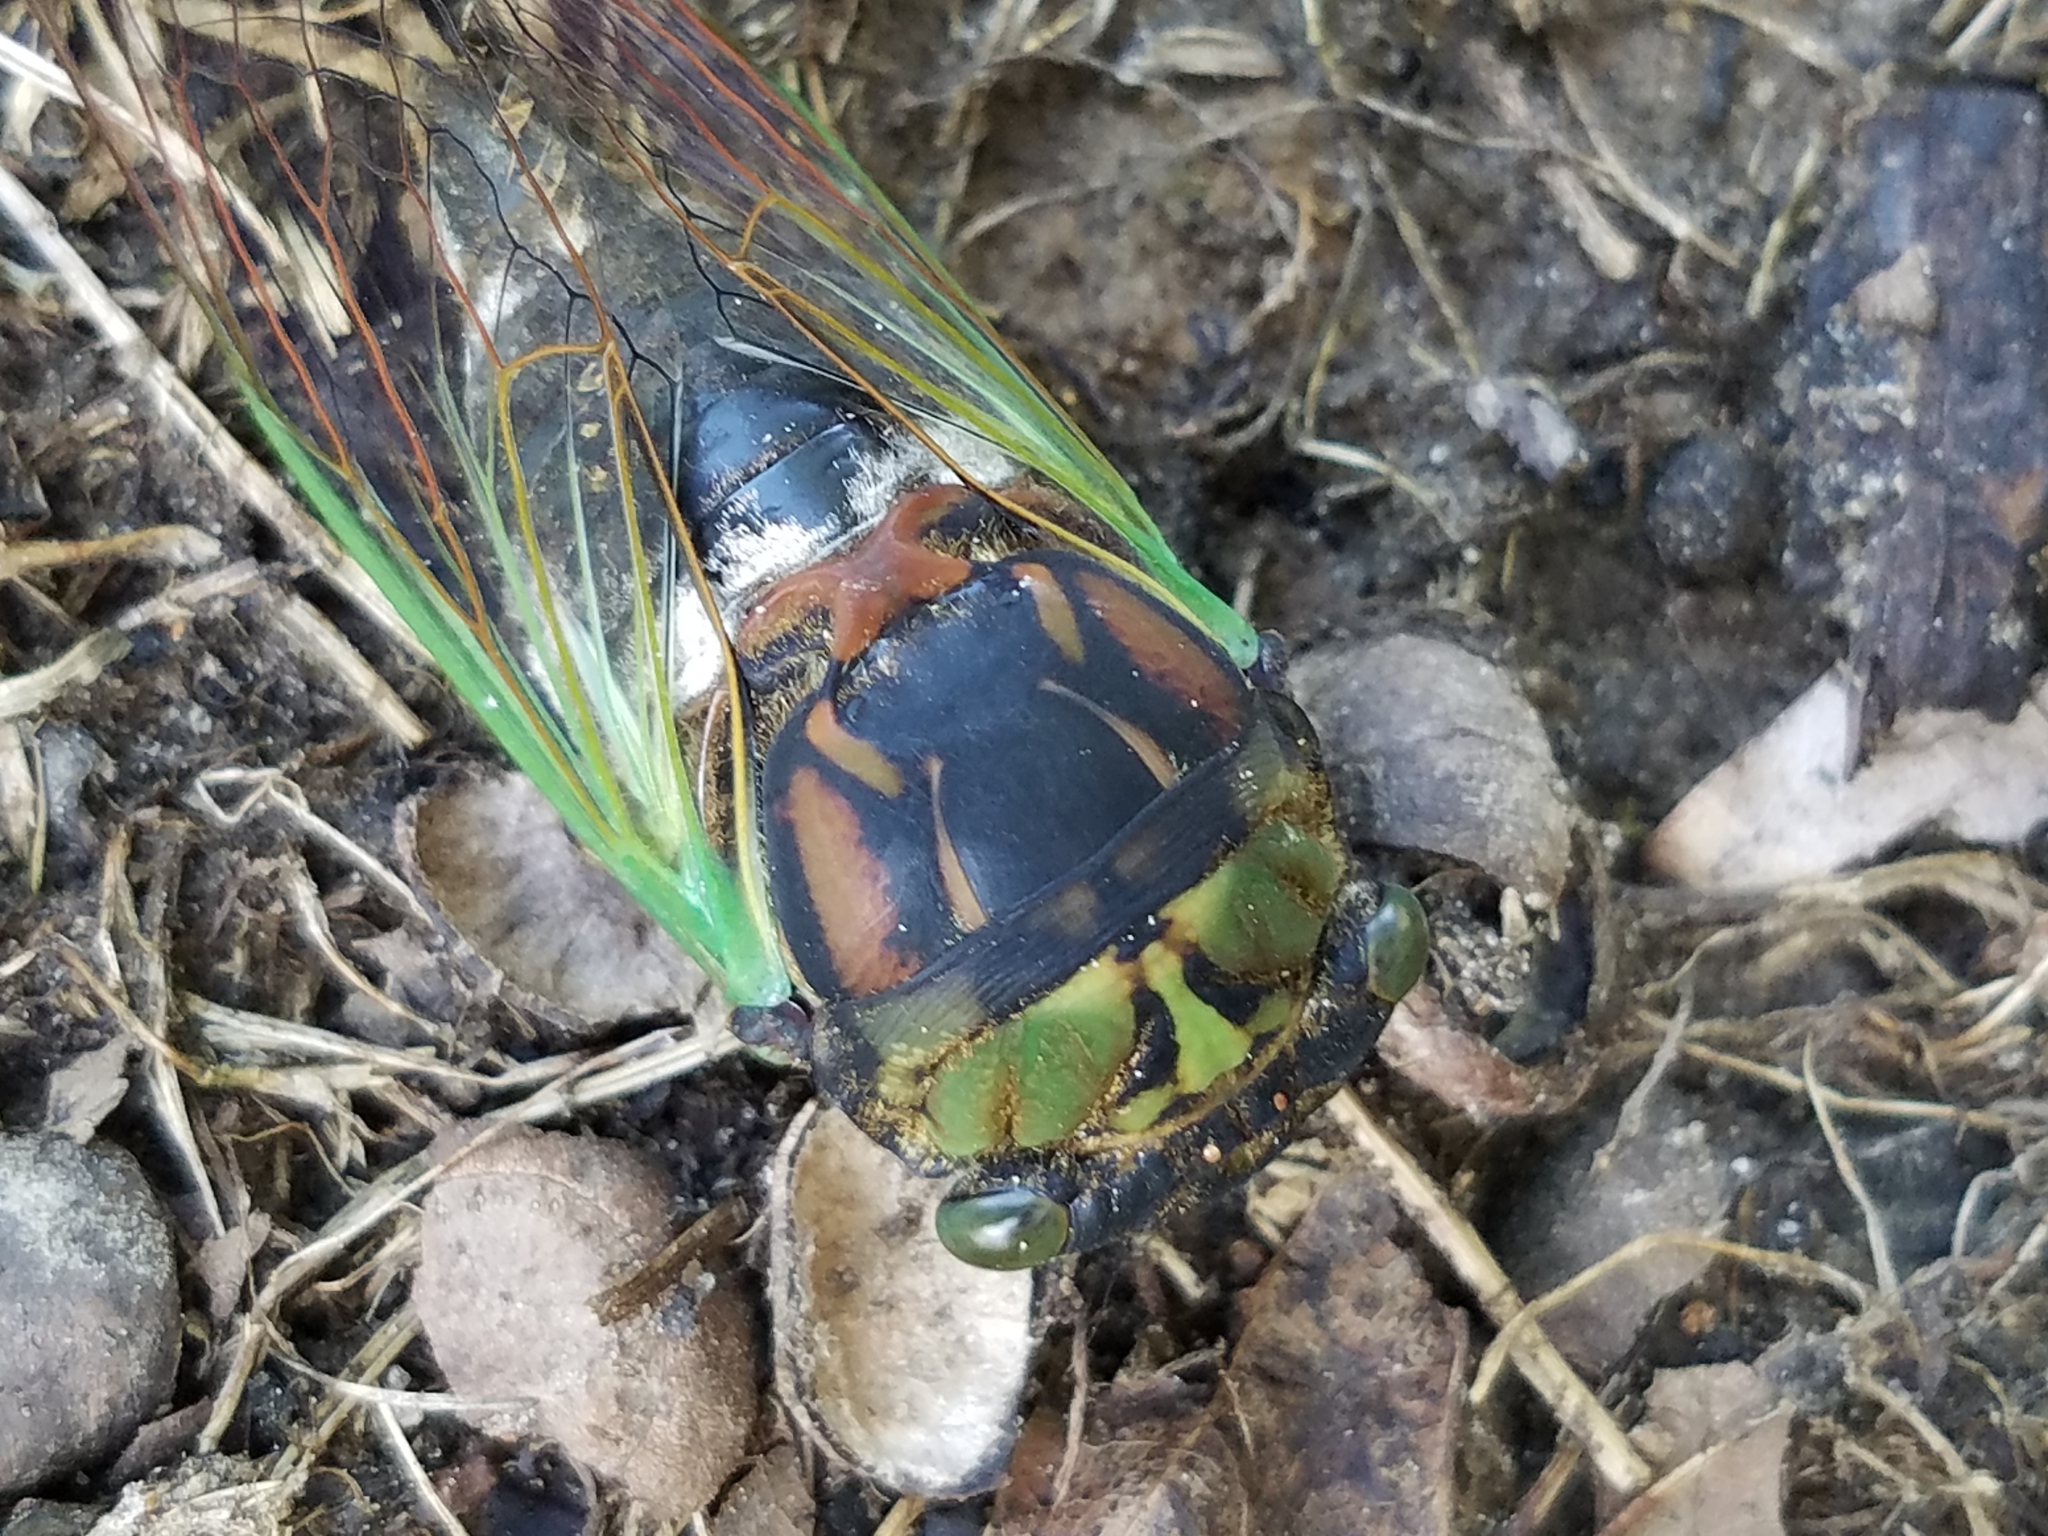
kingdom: Animalia
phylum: Arthropoda
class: Insecta
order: Hemiptera
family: Cicadidae
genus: Neotibicen
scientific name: Neotibicen tibicen
